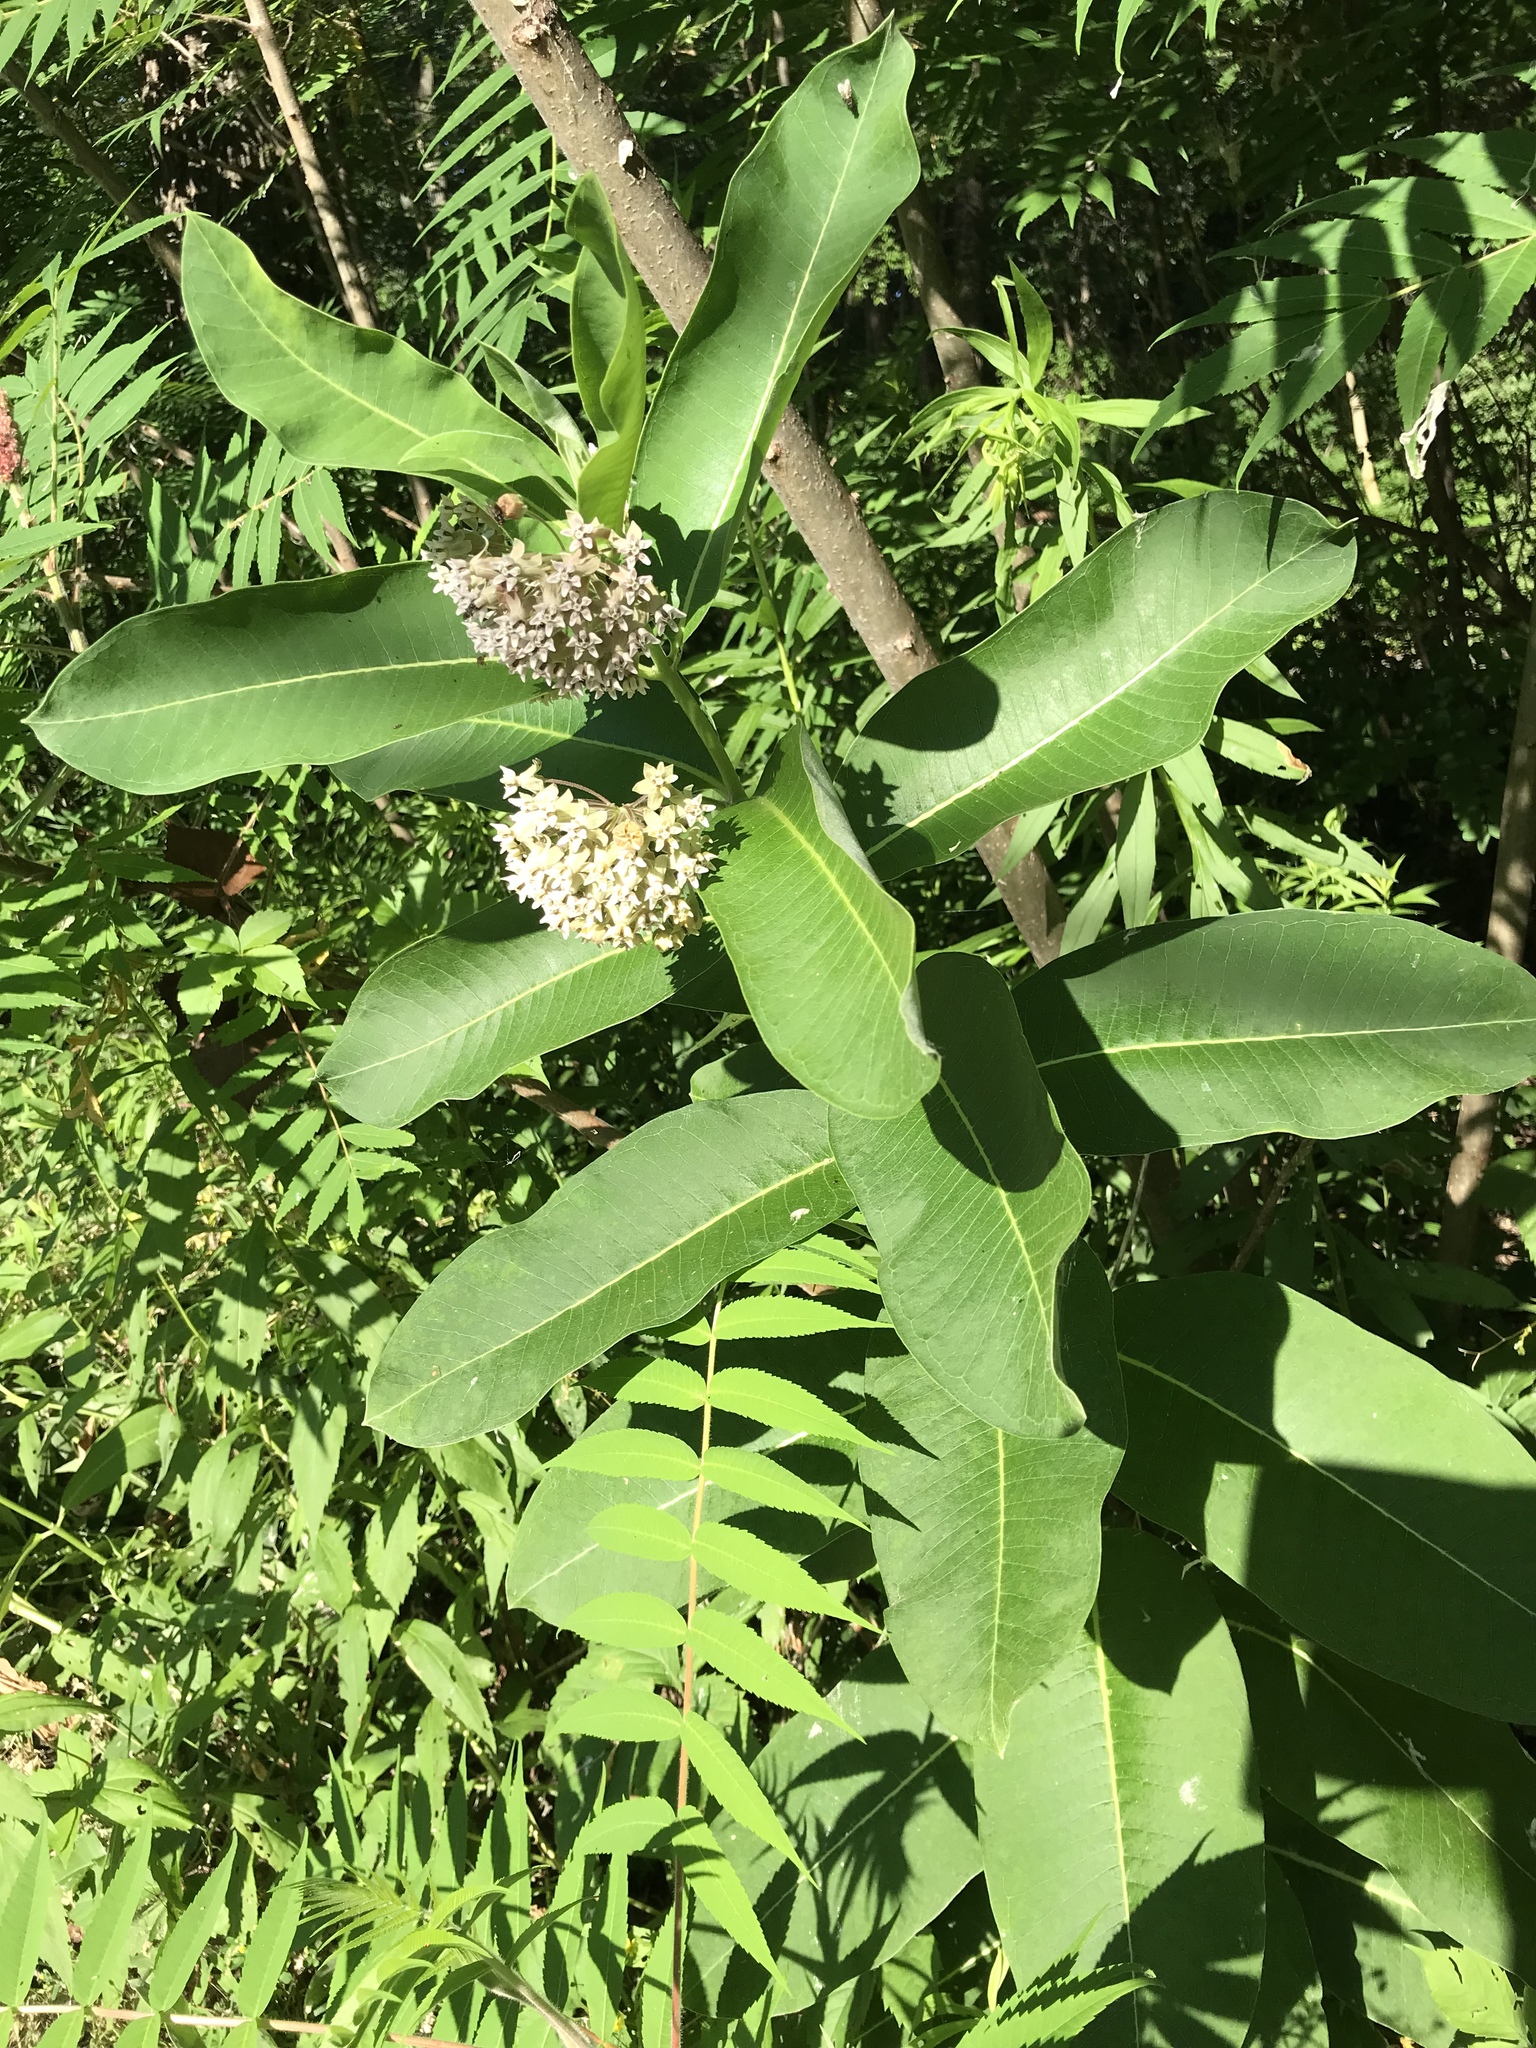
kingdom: Plantae
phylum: Tracheophyta
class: Magnoliopsida
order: Gentianales
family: Apocynaceae
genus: Asclepias
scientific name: Asclepias syriaca
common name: Common milkweed
